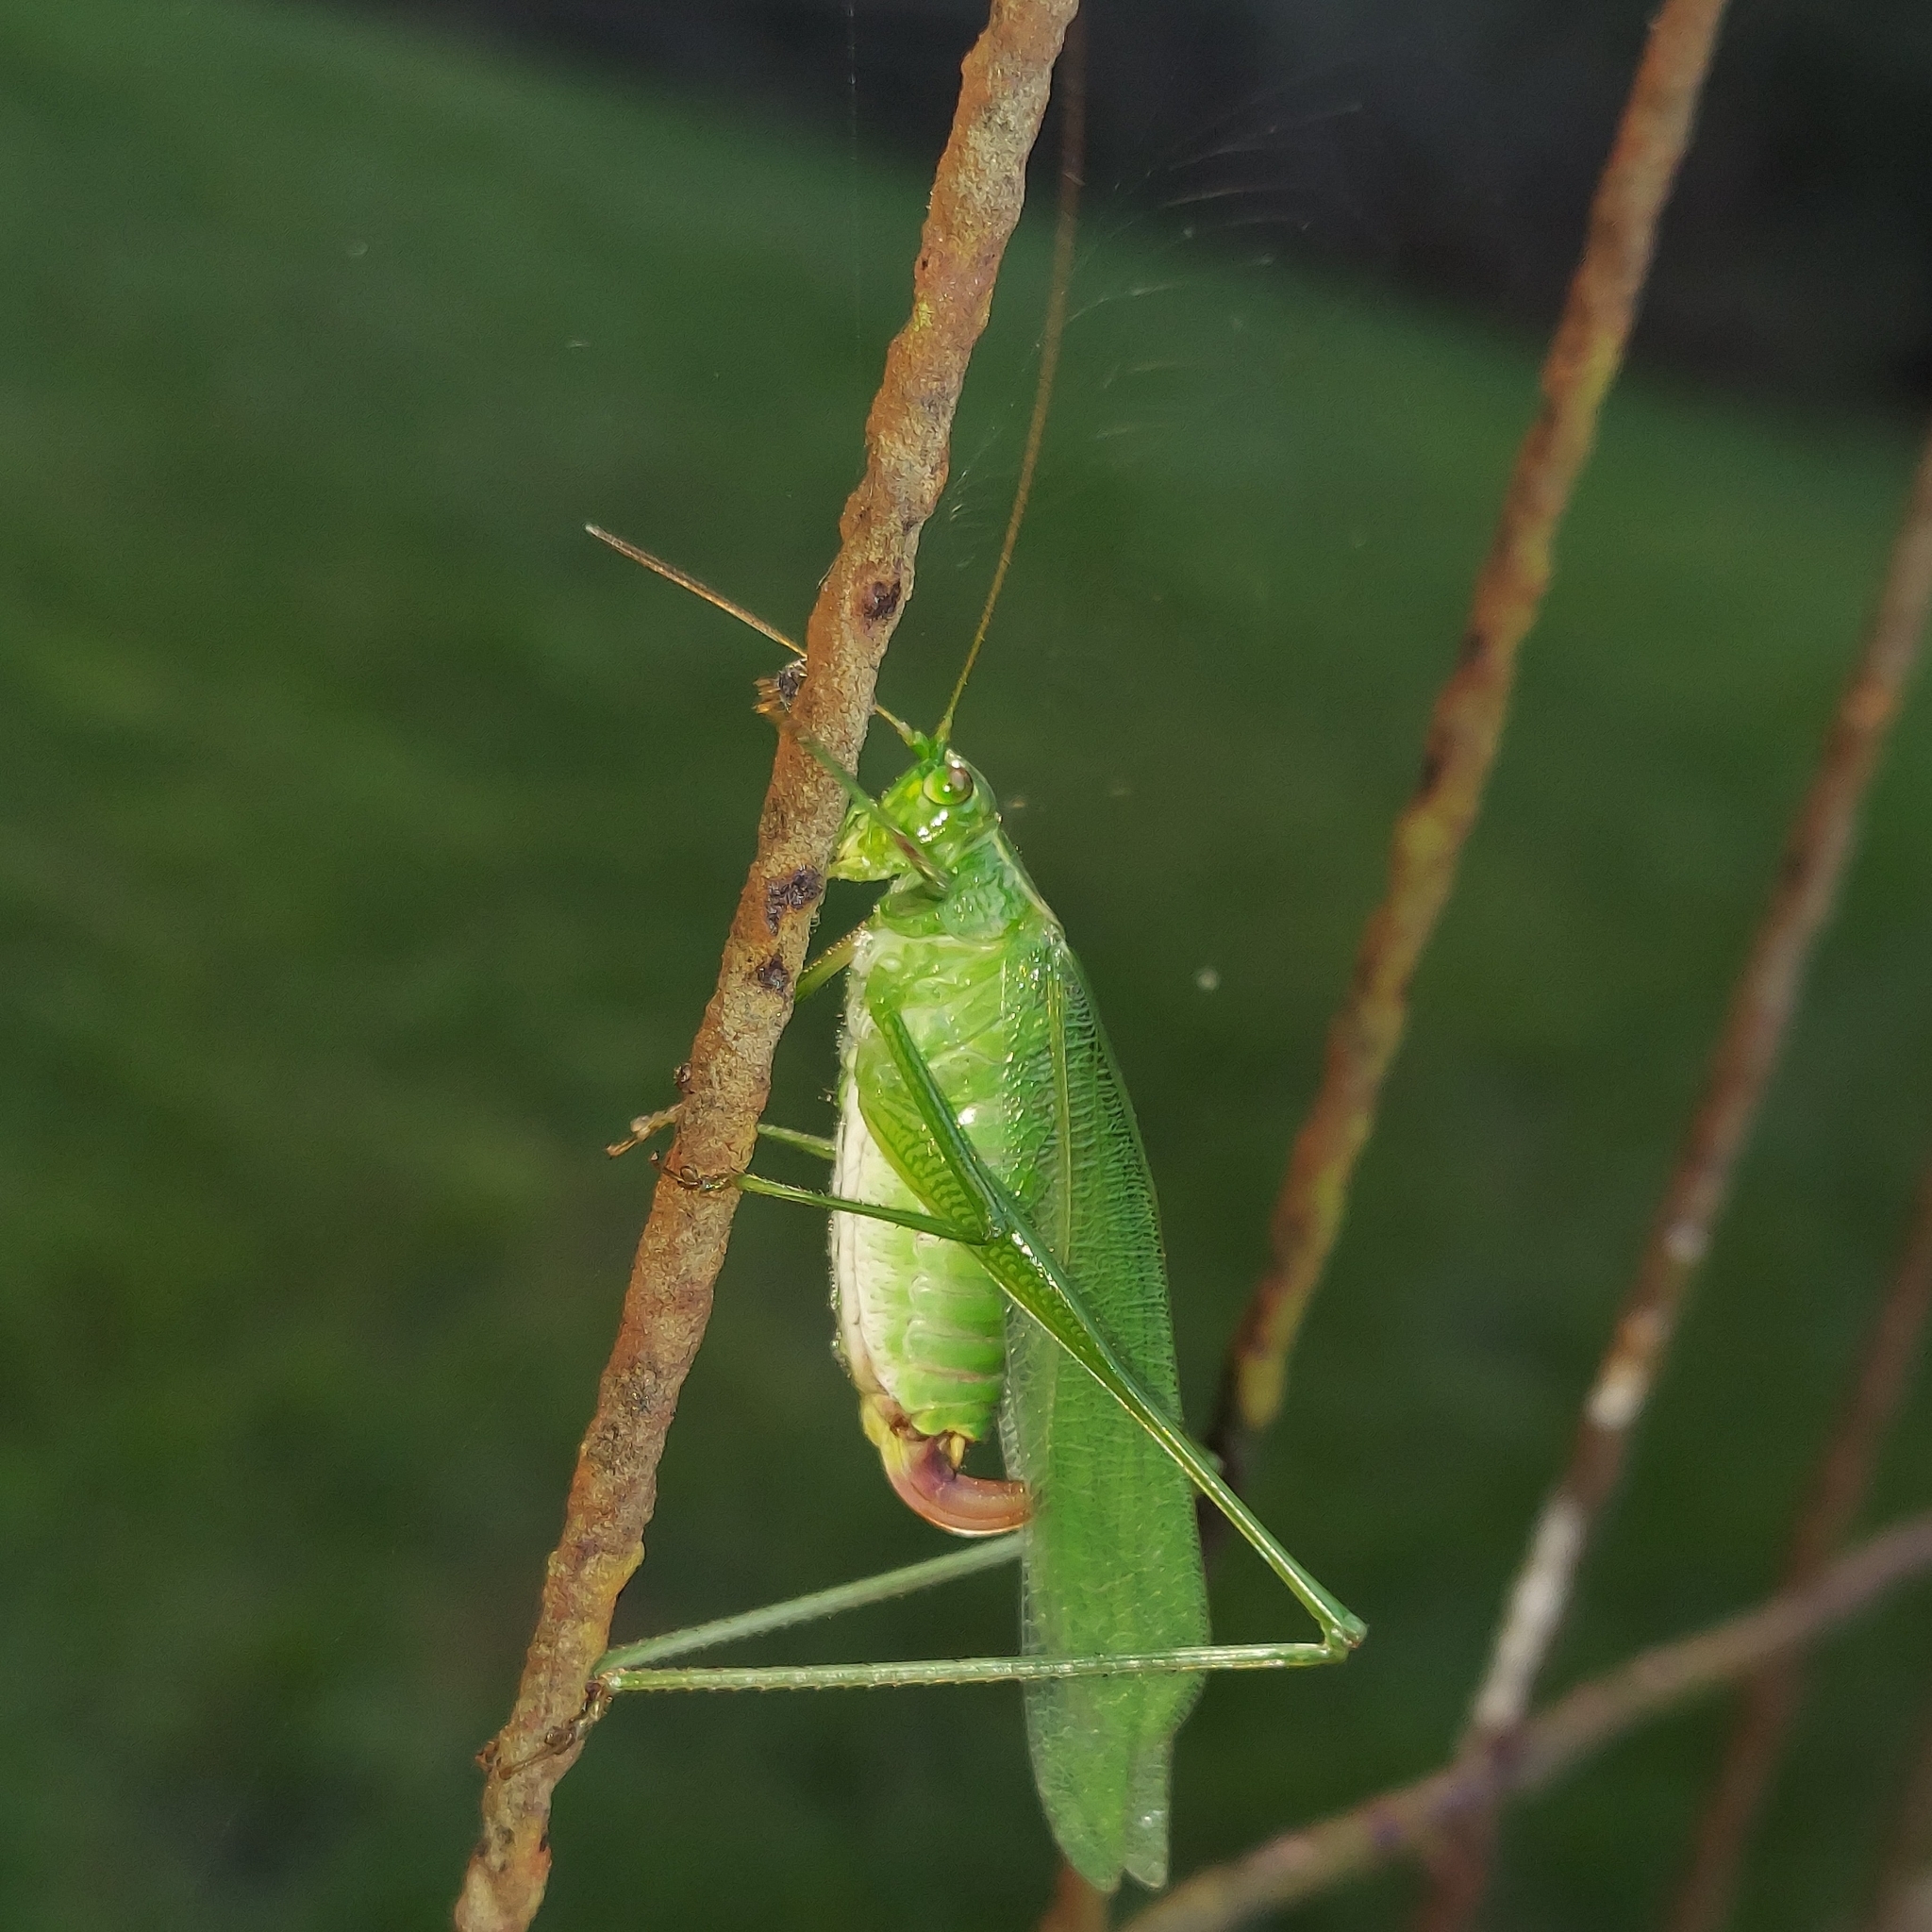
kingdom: Animalia
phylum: Arthropoda
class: Insecta
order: Orthoptera
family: Tettigoniidae
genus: Scudderia
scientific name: Scudderia furcata
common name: Fork-tailed bush katydid
